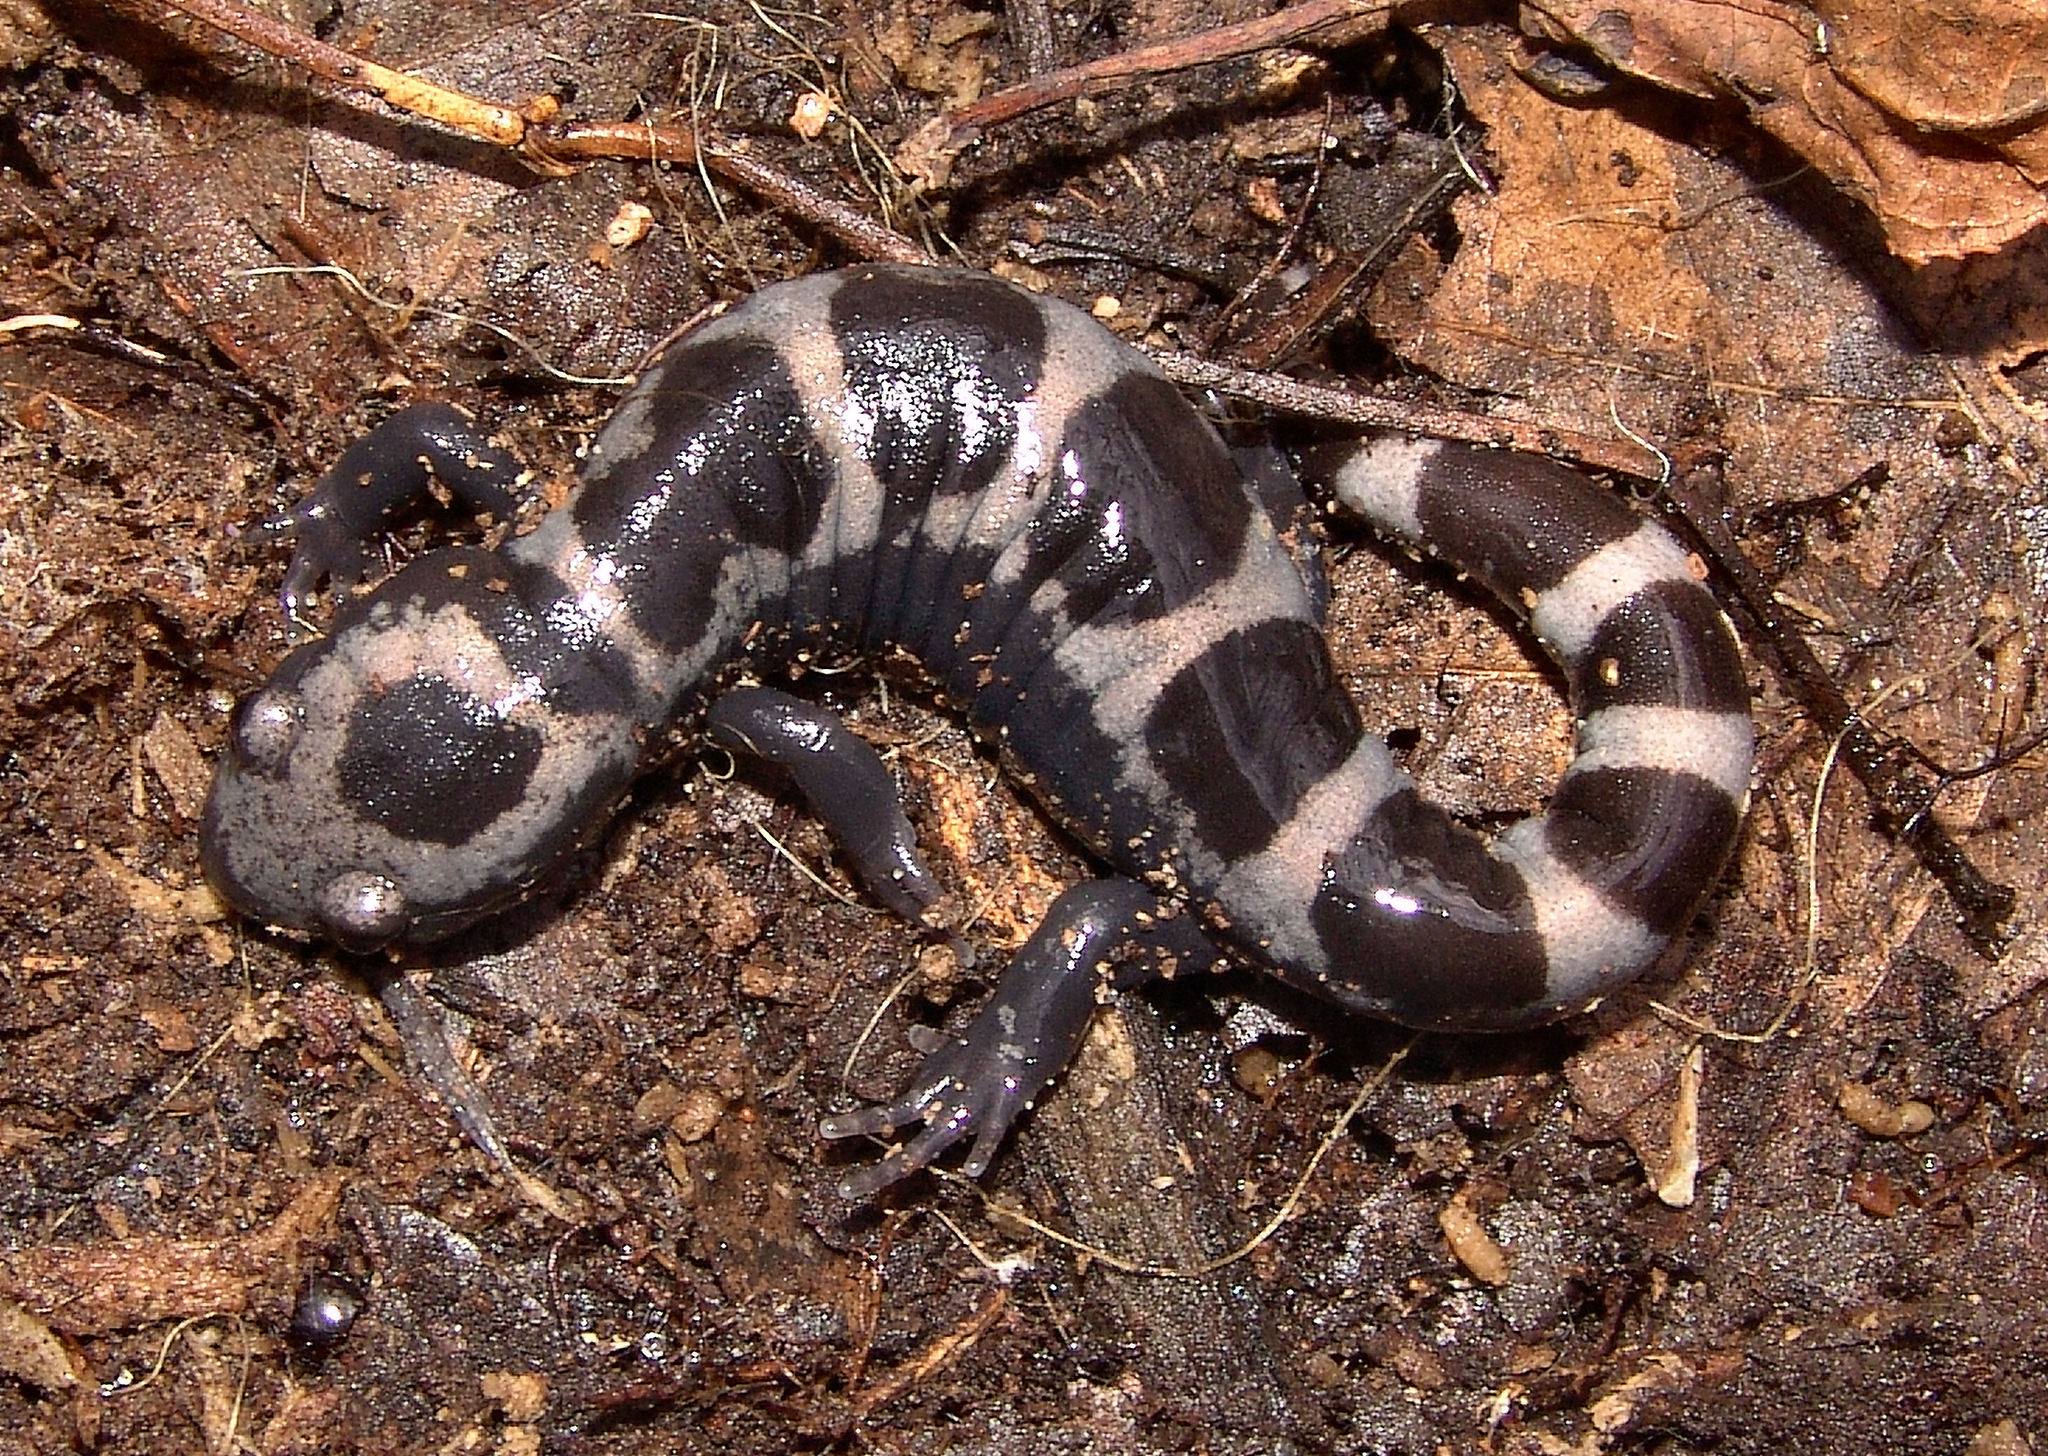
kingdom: Animalia
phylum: Chordata
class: Amphibia
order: Caudata
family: Ambystomatidae
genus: Ambystoma
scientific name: Ambystoma opacum
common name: Marbled salamander
